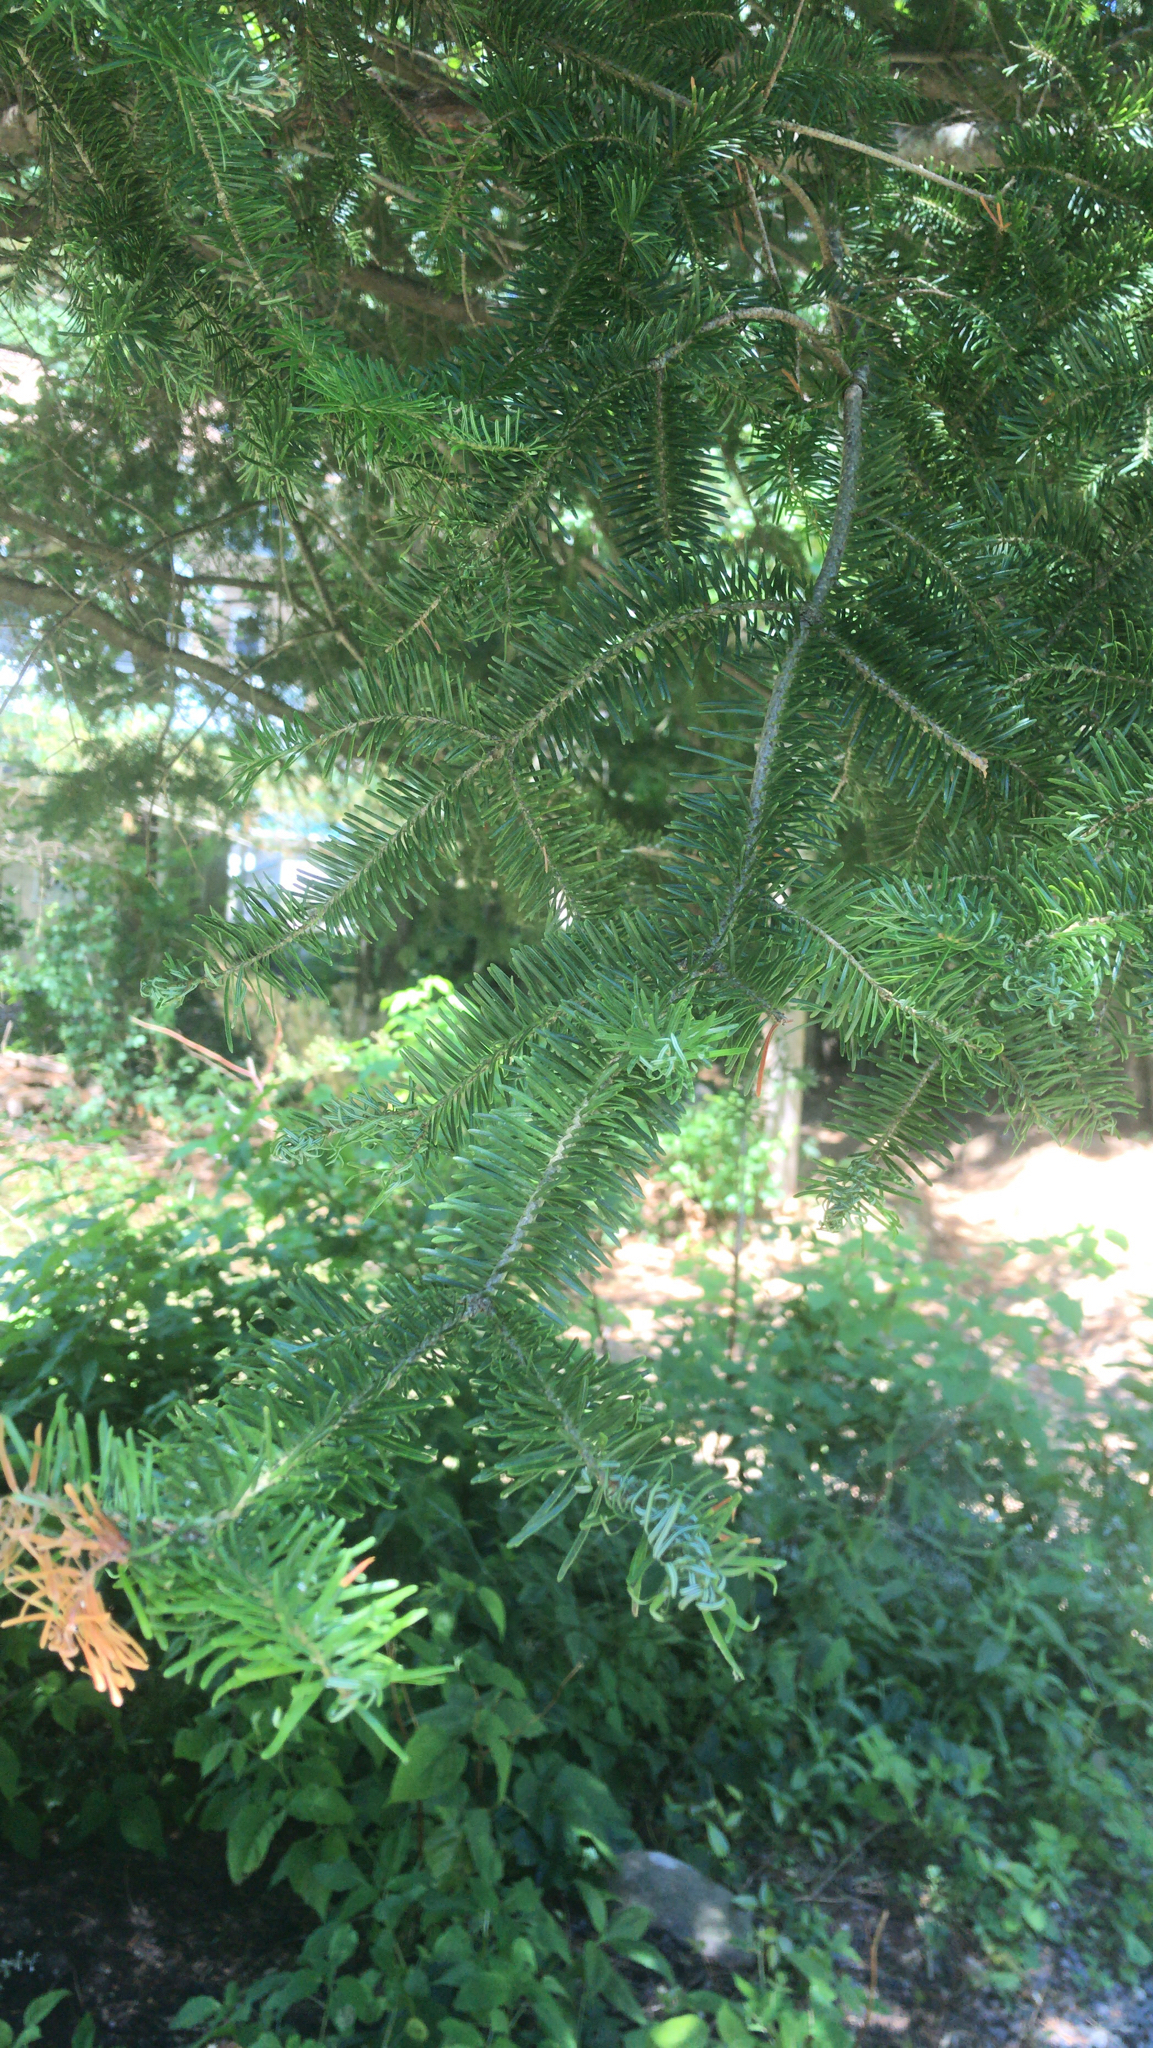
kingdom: Plantae
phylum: Tracheophyta
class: Pinopsida
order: Pinales
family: Pinaceae
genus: Abies
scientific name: Abies balsamea
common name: Balsam fir
